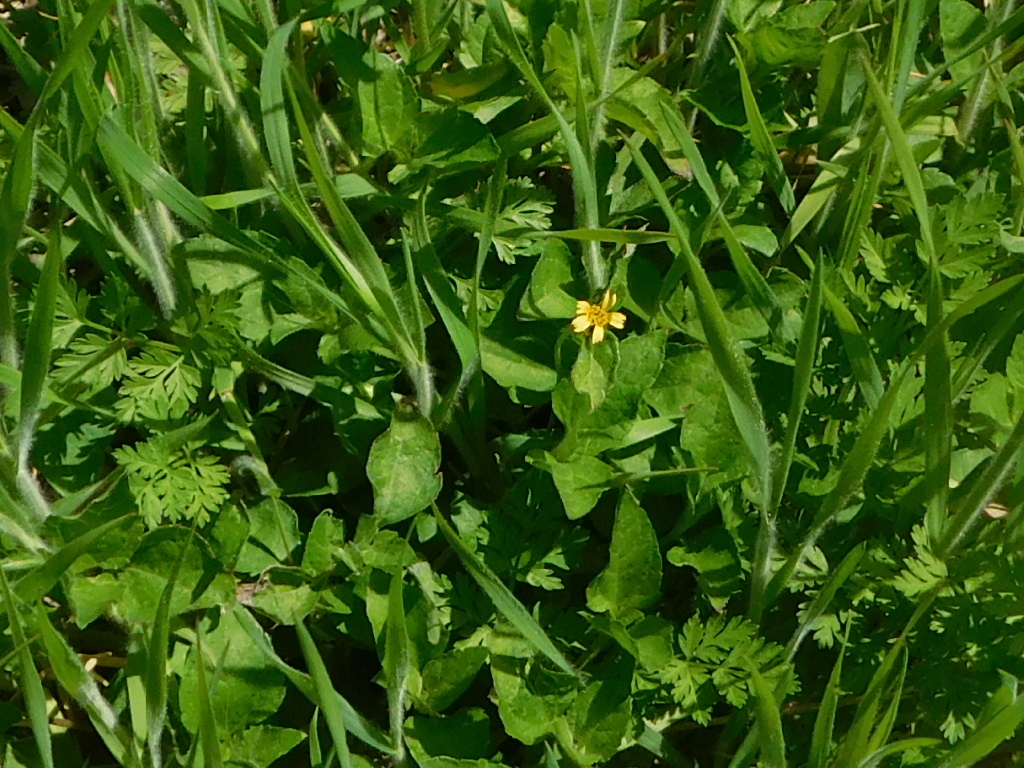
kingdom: Plantae
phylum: Tracheophyta
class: Magnoliopsida
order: Asterales
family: Asteraceae
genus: Calyptocarpus
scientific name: Calyptocarpus vialis
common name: Straggler daisy
